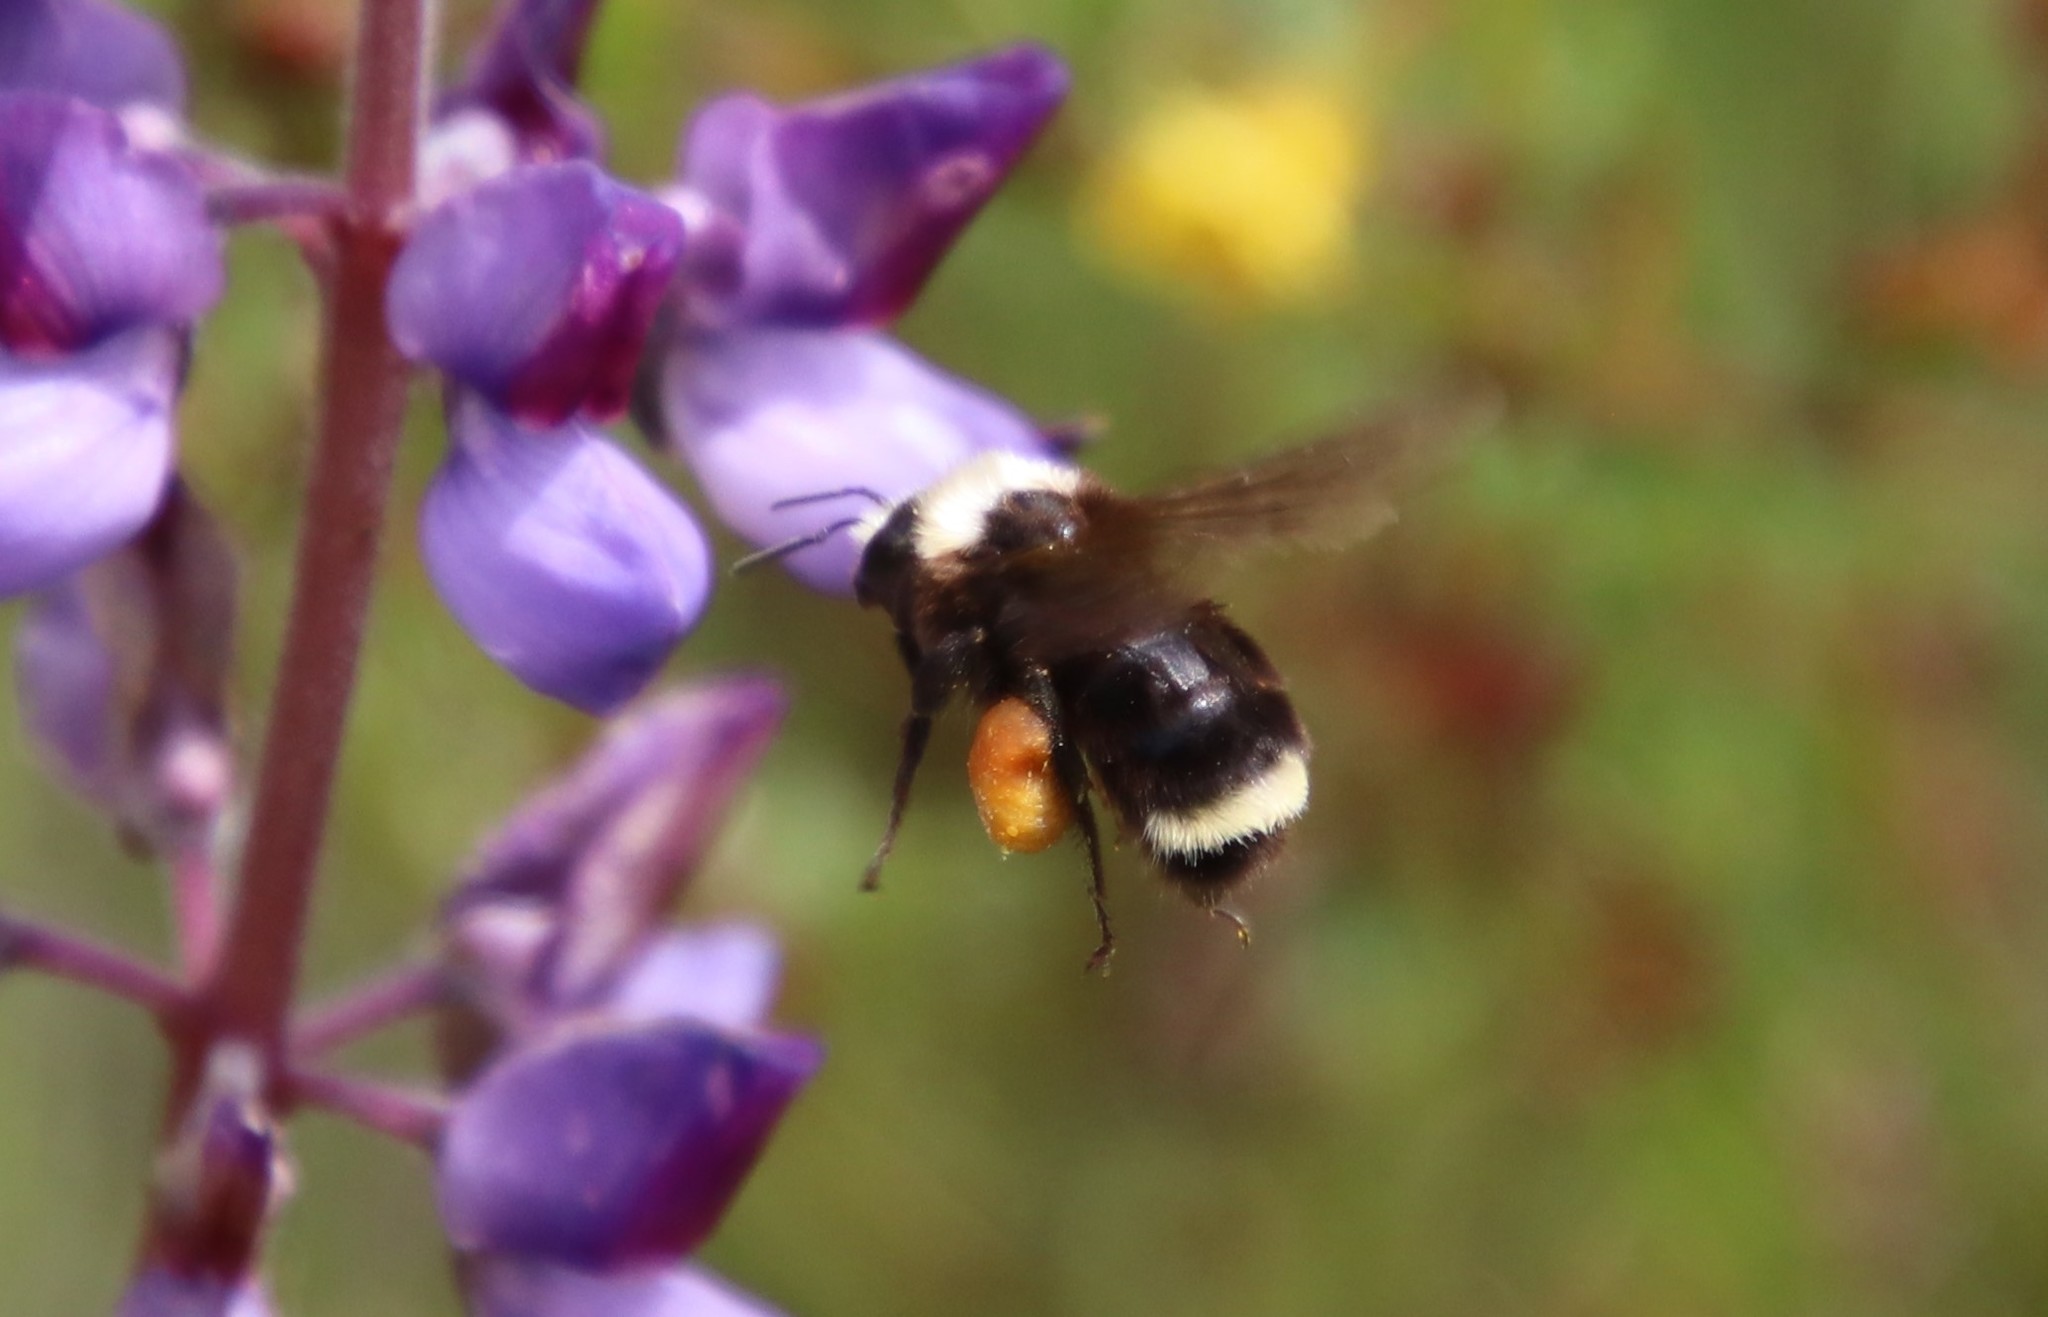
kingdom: Animalia
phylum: Arthropoda
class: Insecta
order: Hymenoptera
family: Apidae
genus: Bombus
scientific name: Bombus vosnesenskii
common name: Vosnesensky bumble bee
